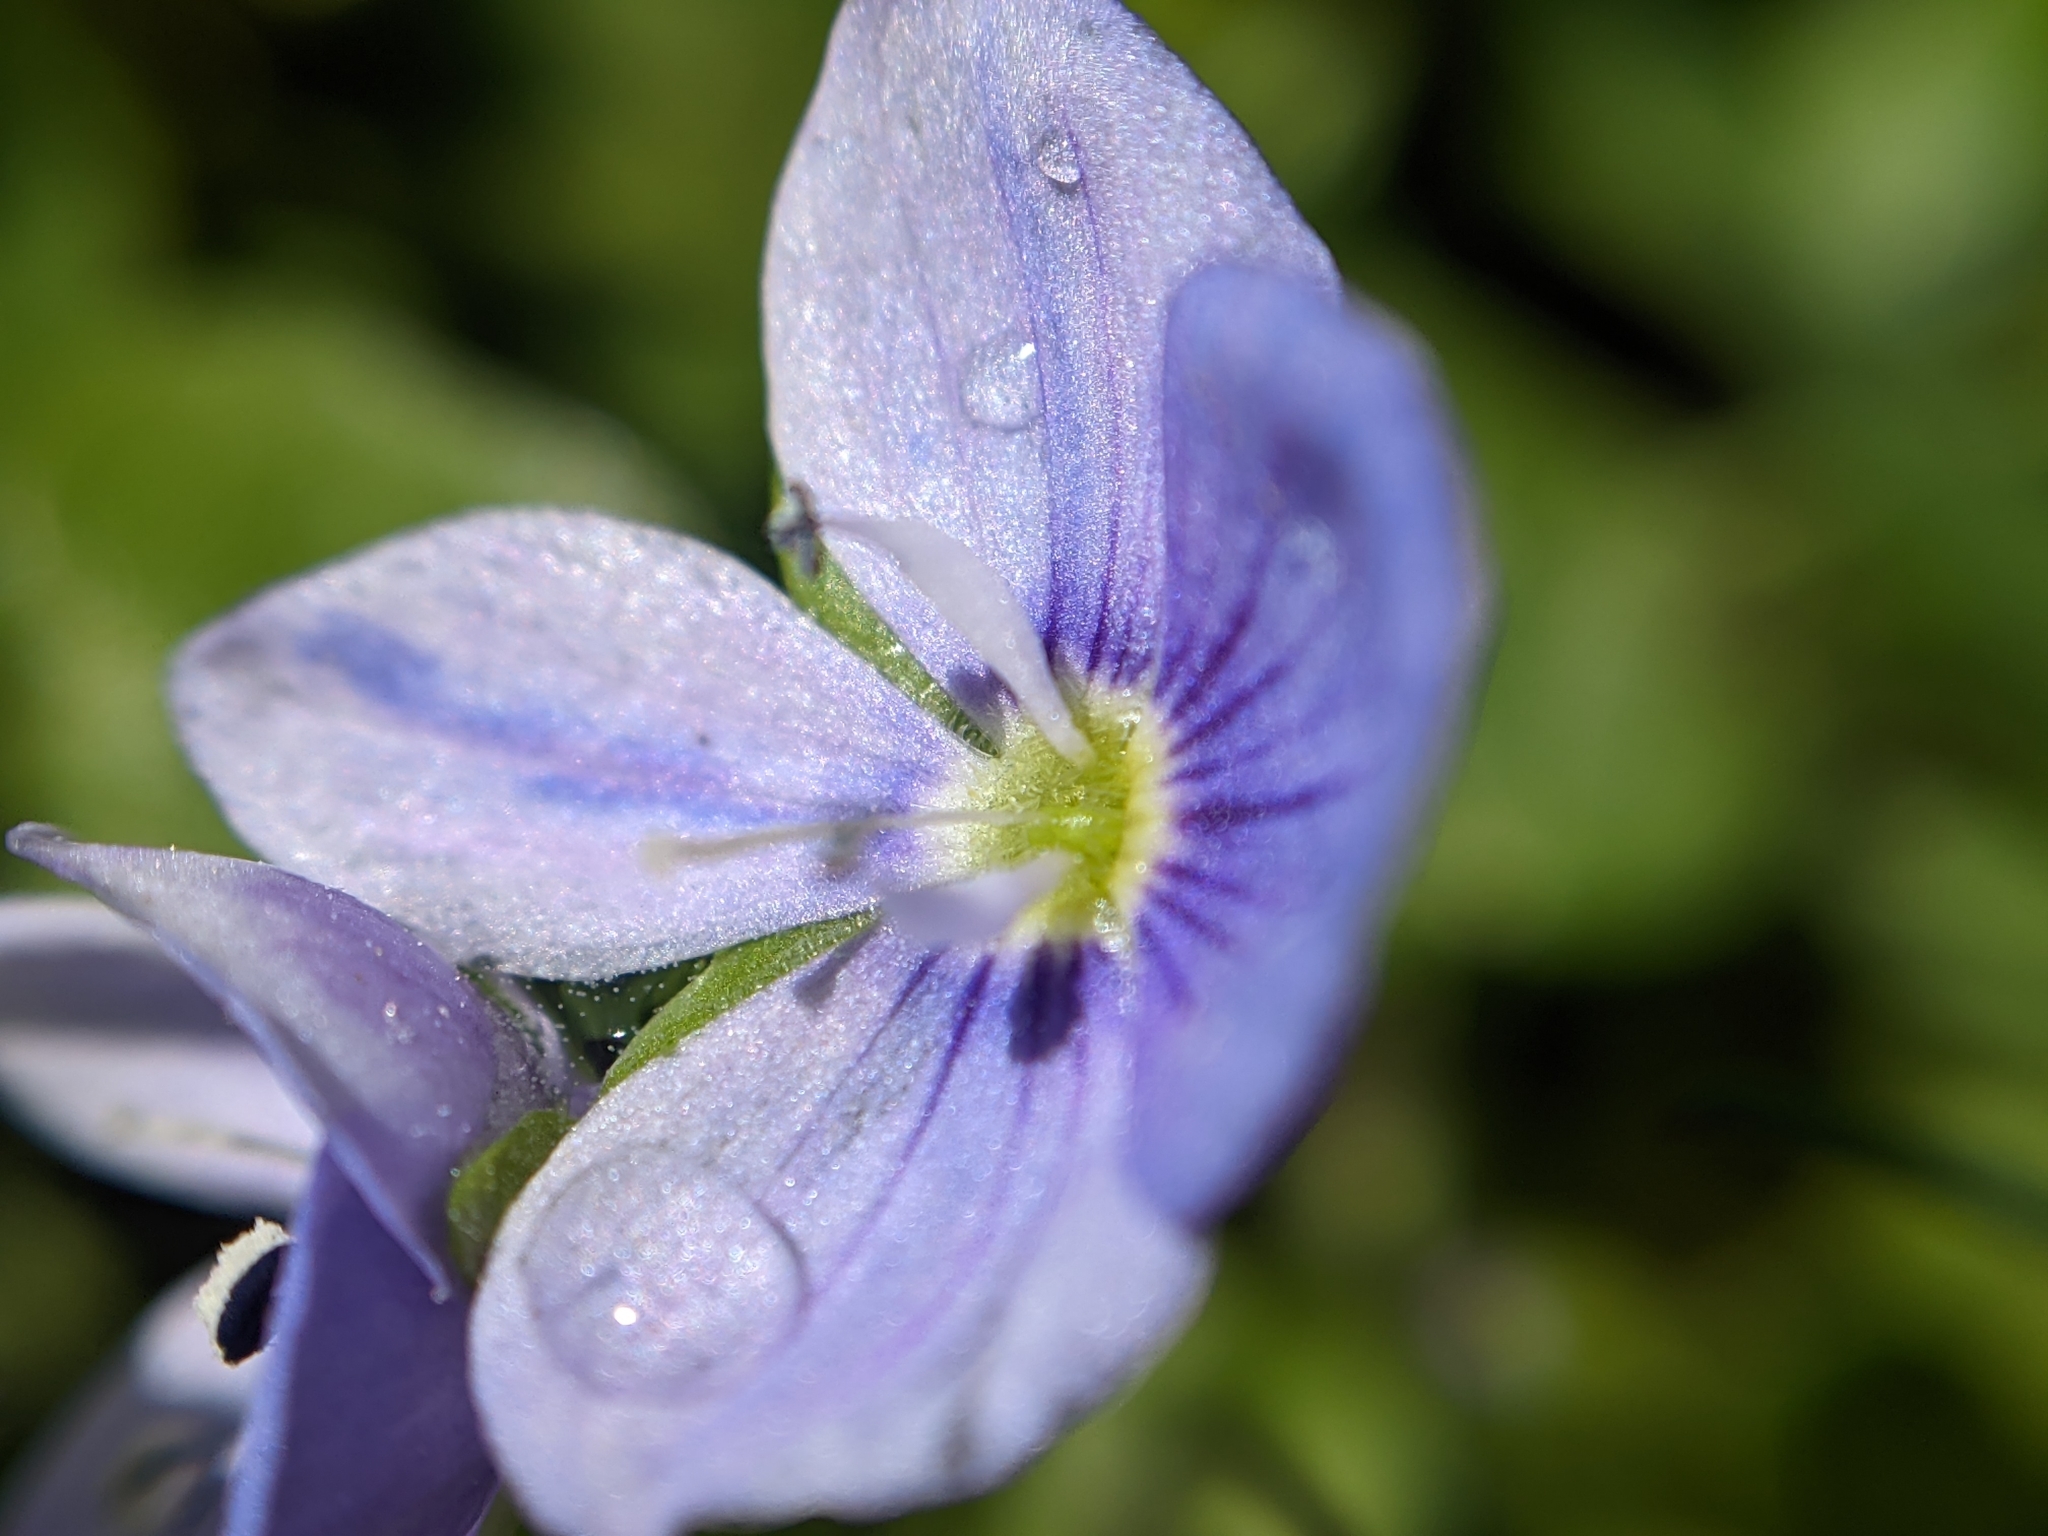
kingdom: Plantae
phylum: Tracheophyta
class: Magnoliopsida
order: Lamiales
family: Plantaginaceae
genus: Veronica
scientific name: Veronica filiformis
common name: Slender speedwell
